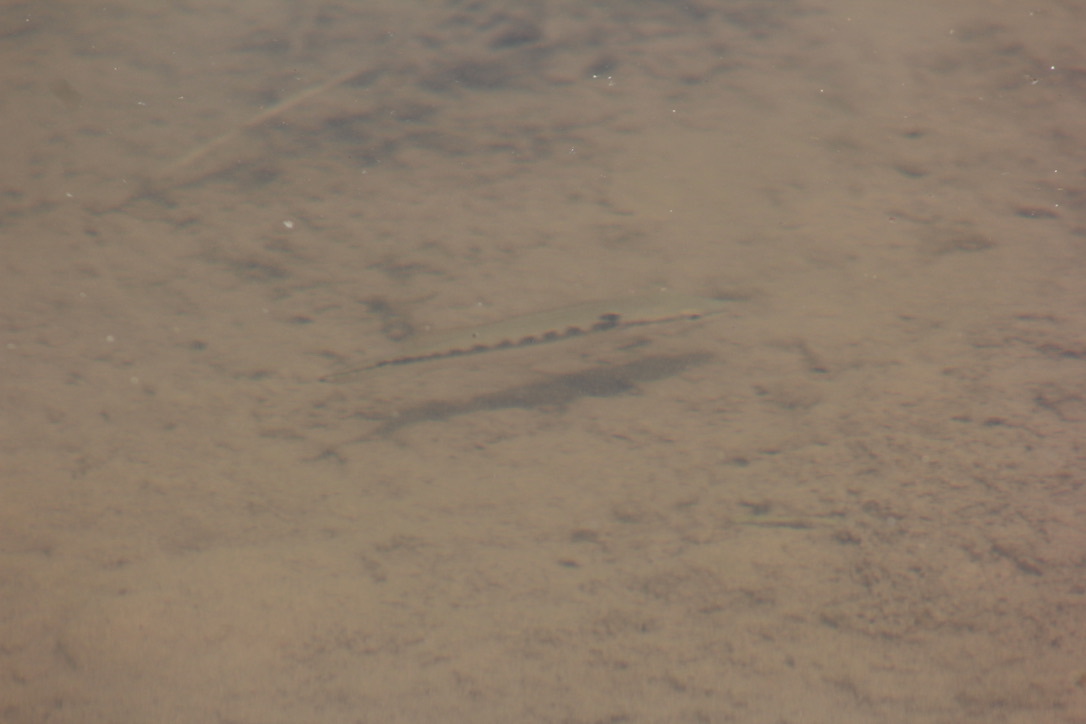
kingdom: Animalia
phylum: Chordata
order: Perciformes
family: Cichlidae
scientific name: Cichlidae
